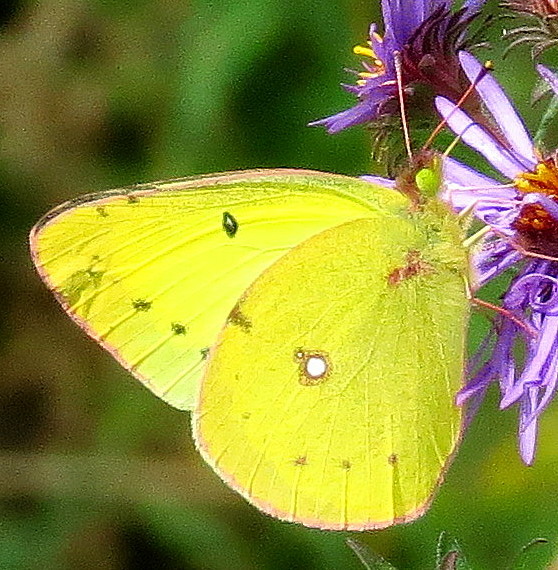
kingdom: Animalia
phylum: Arthropoda
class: Insecta
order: Lepidoptera
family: Pieridae
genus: Colias
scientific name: Colias philodice
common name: Clouded sulphur
